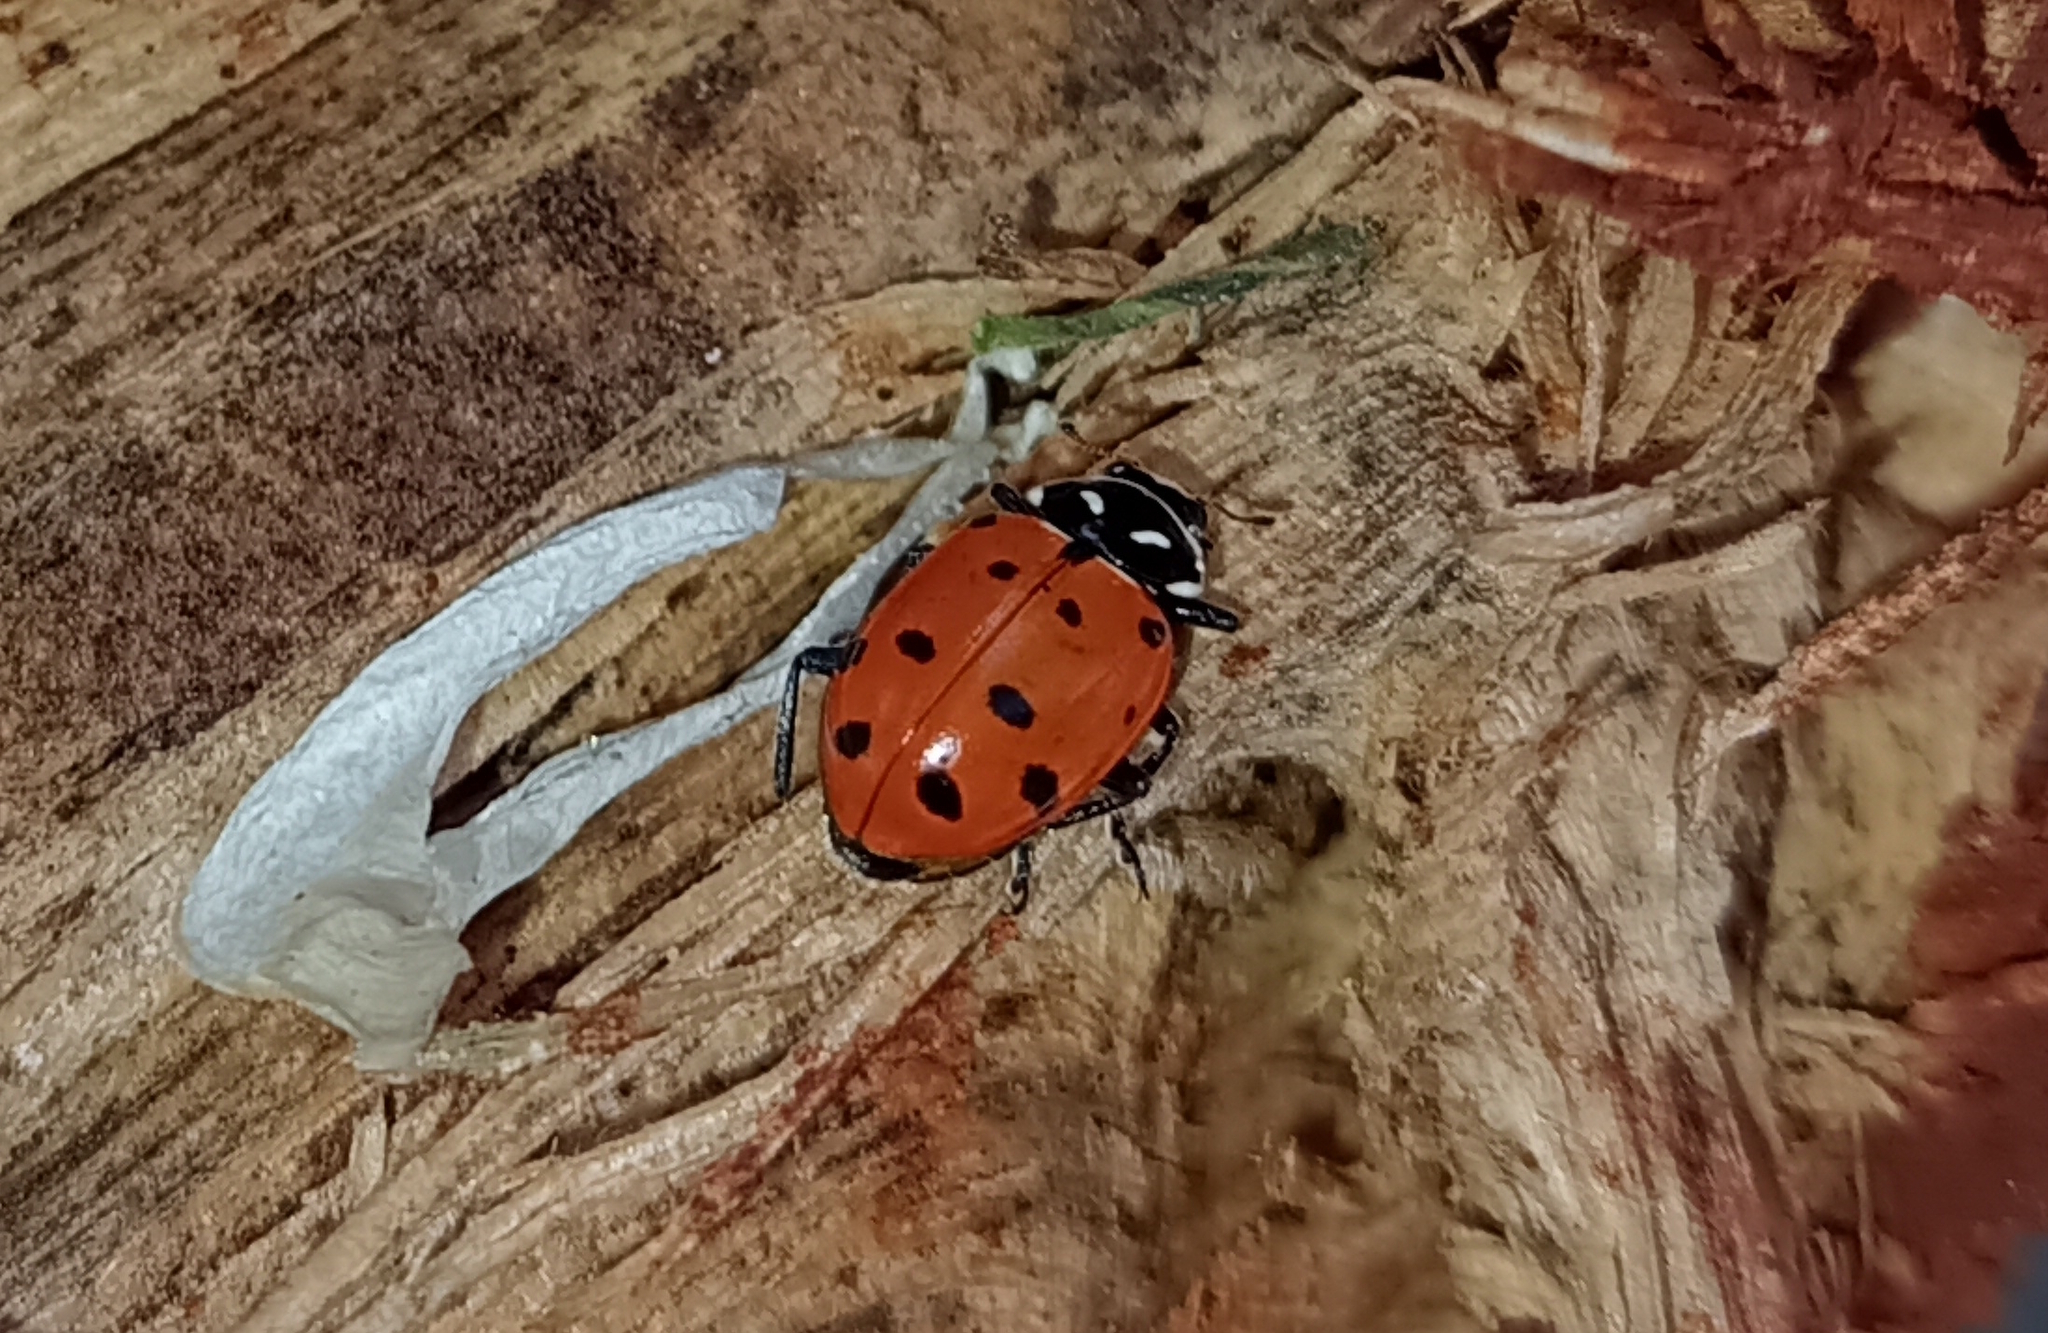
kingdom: Animalia
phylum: Arthropoda
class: Insecta
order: Coleoptera
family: Coccinellidae
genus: Hippodamia
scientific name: Hippodamia convergens
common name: Convergent lady beetle
